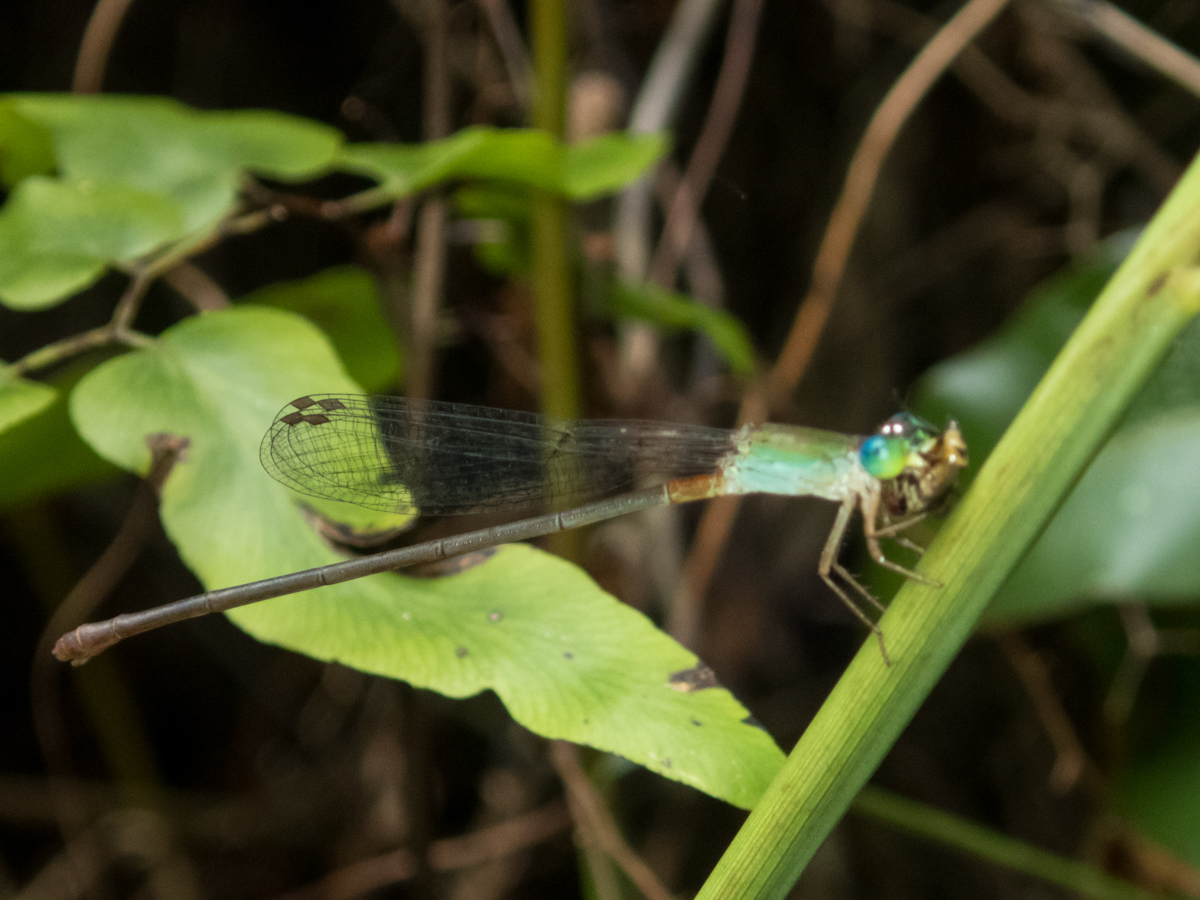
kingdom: Animalia
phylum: Arthropoda
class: Insecta
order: Odonata
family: Coenagrionidae
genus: Ceriagrion
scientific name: Ceriagrion cerinorubellum
